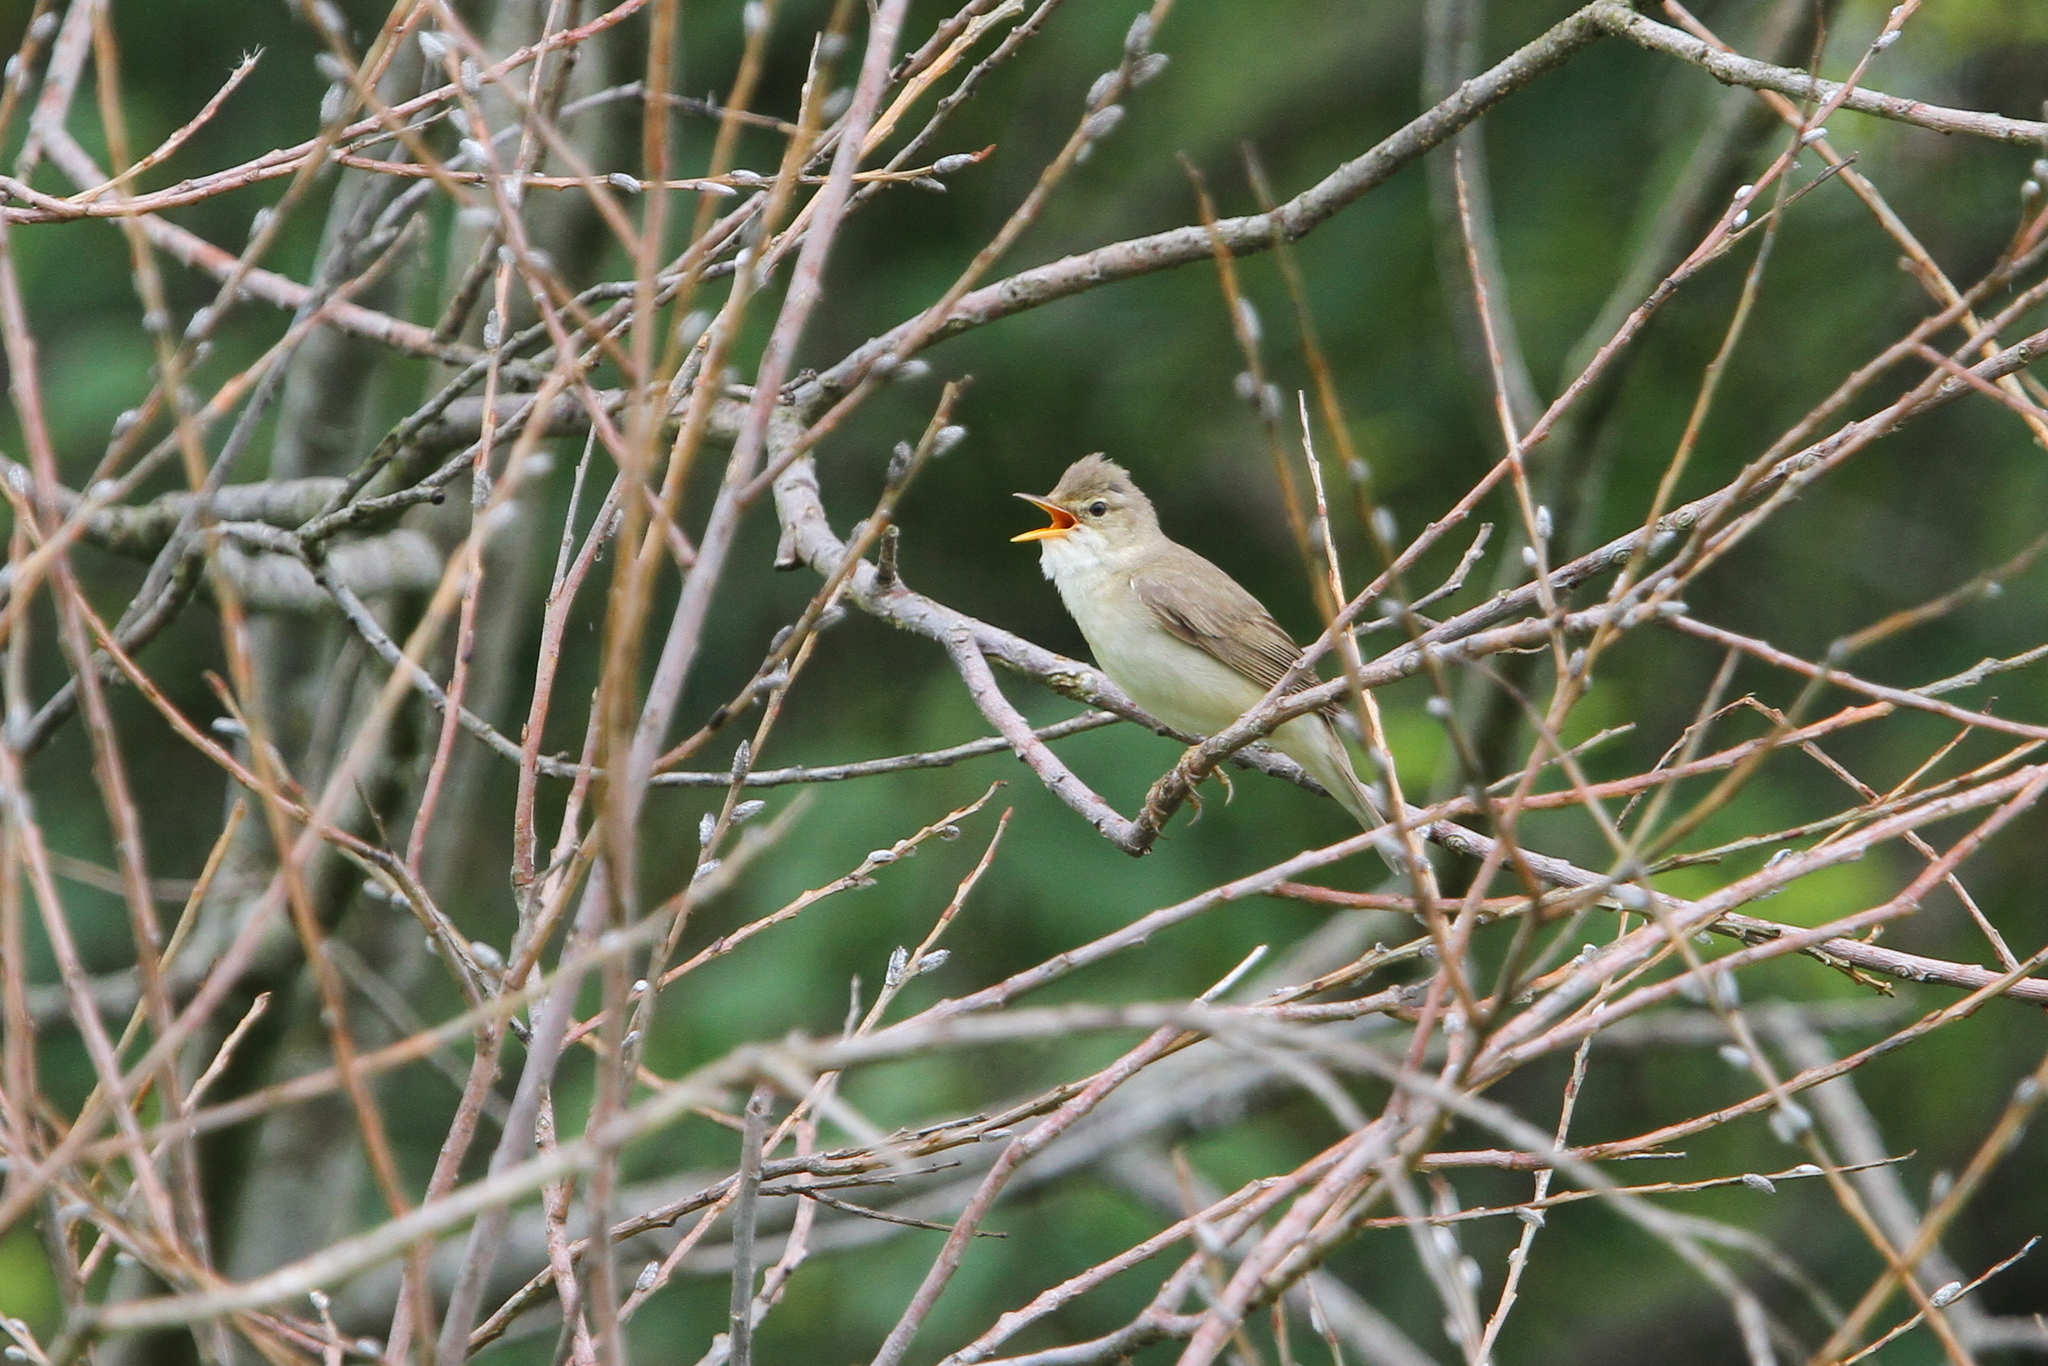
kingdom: Animalia
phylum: Chordata
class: Aves
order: Passeriformes
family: Acrocephalidae
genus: Acrocephalus
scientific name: Acrocephalus palustris
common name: Marsh warbler
